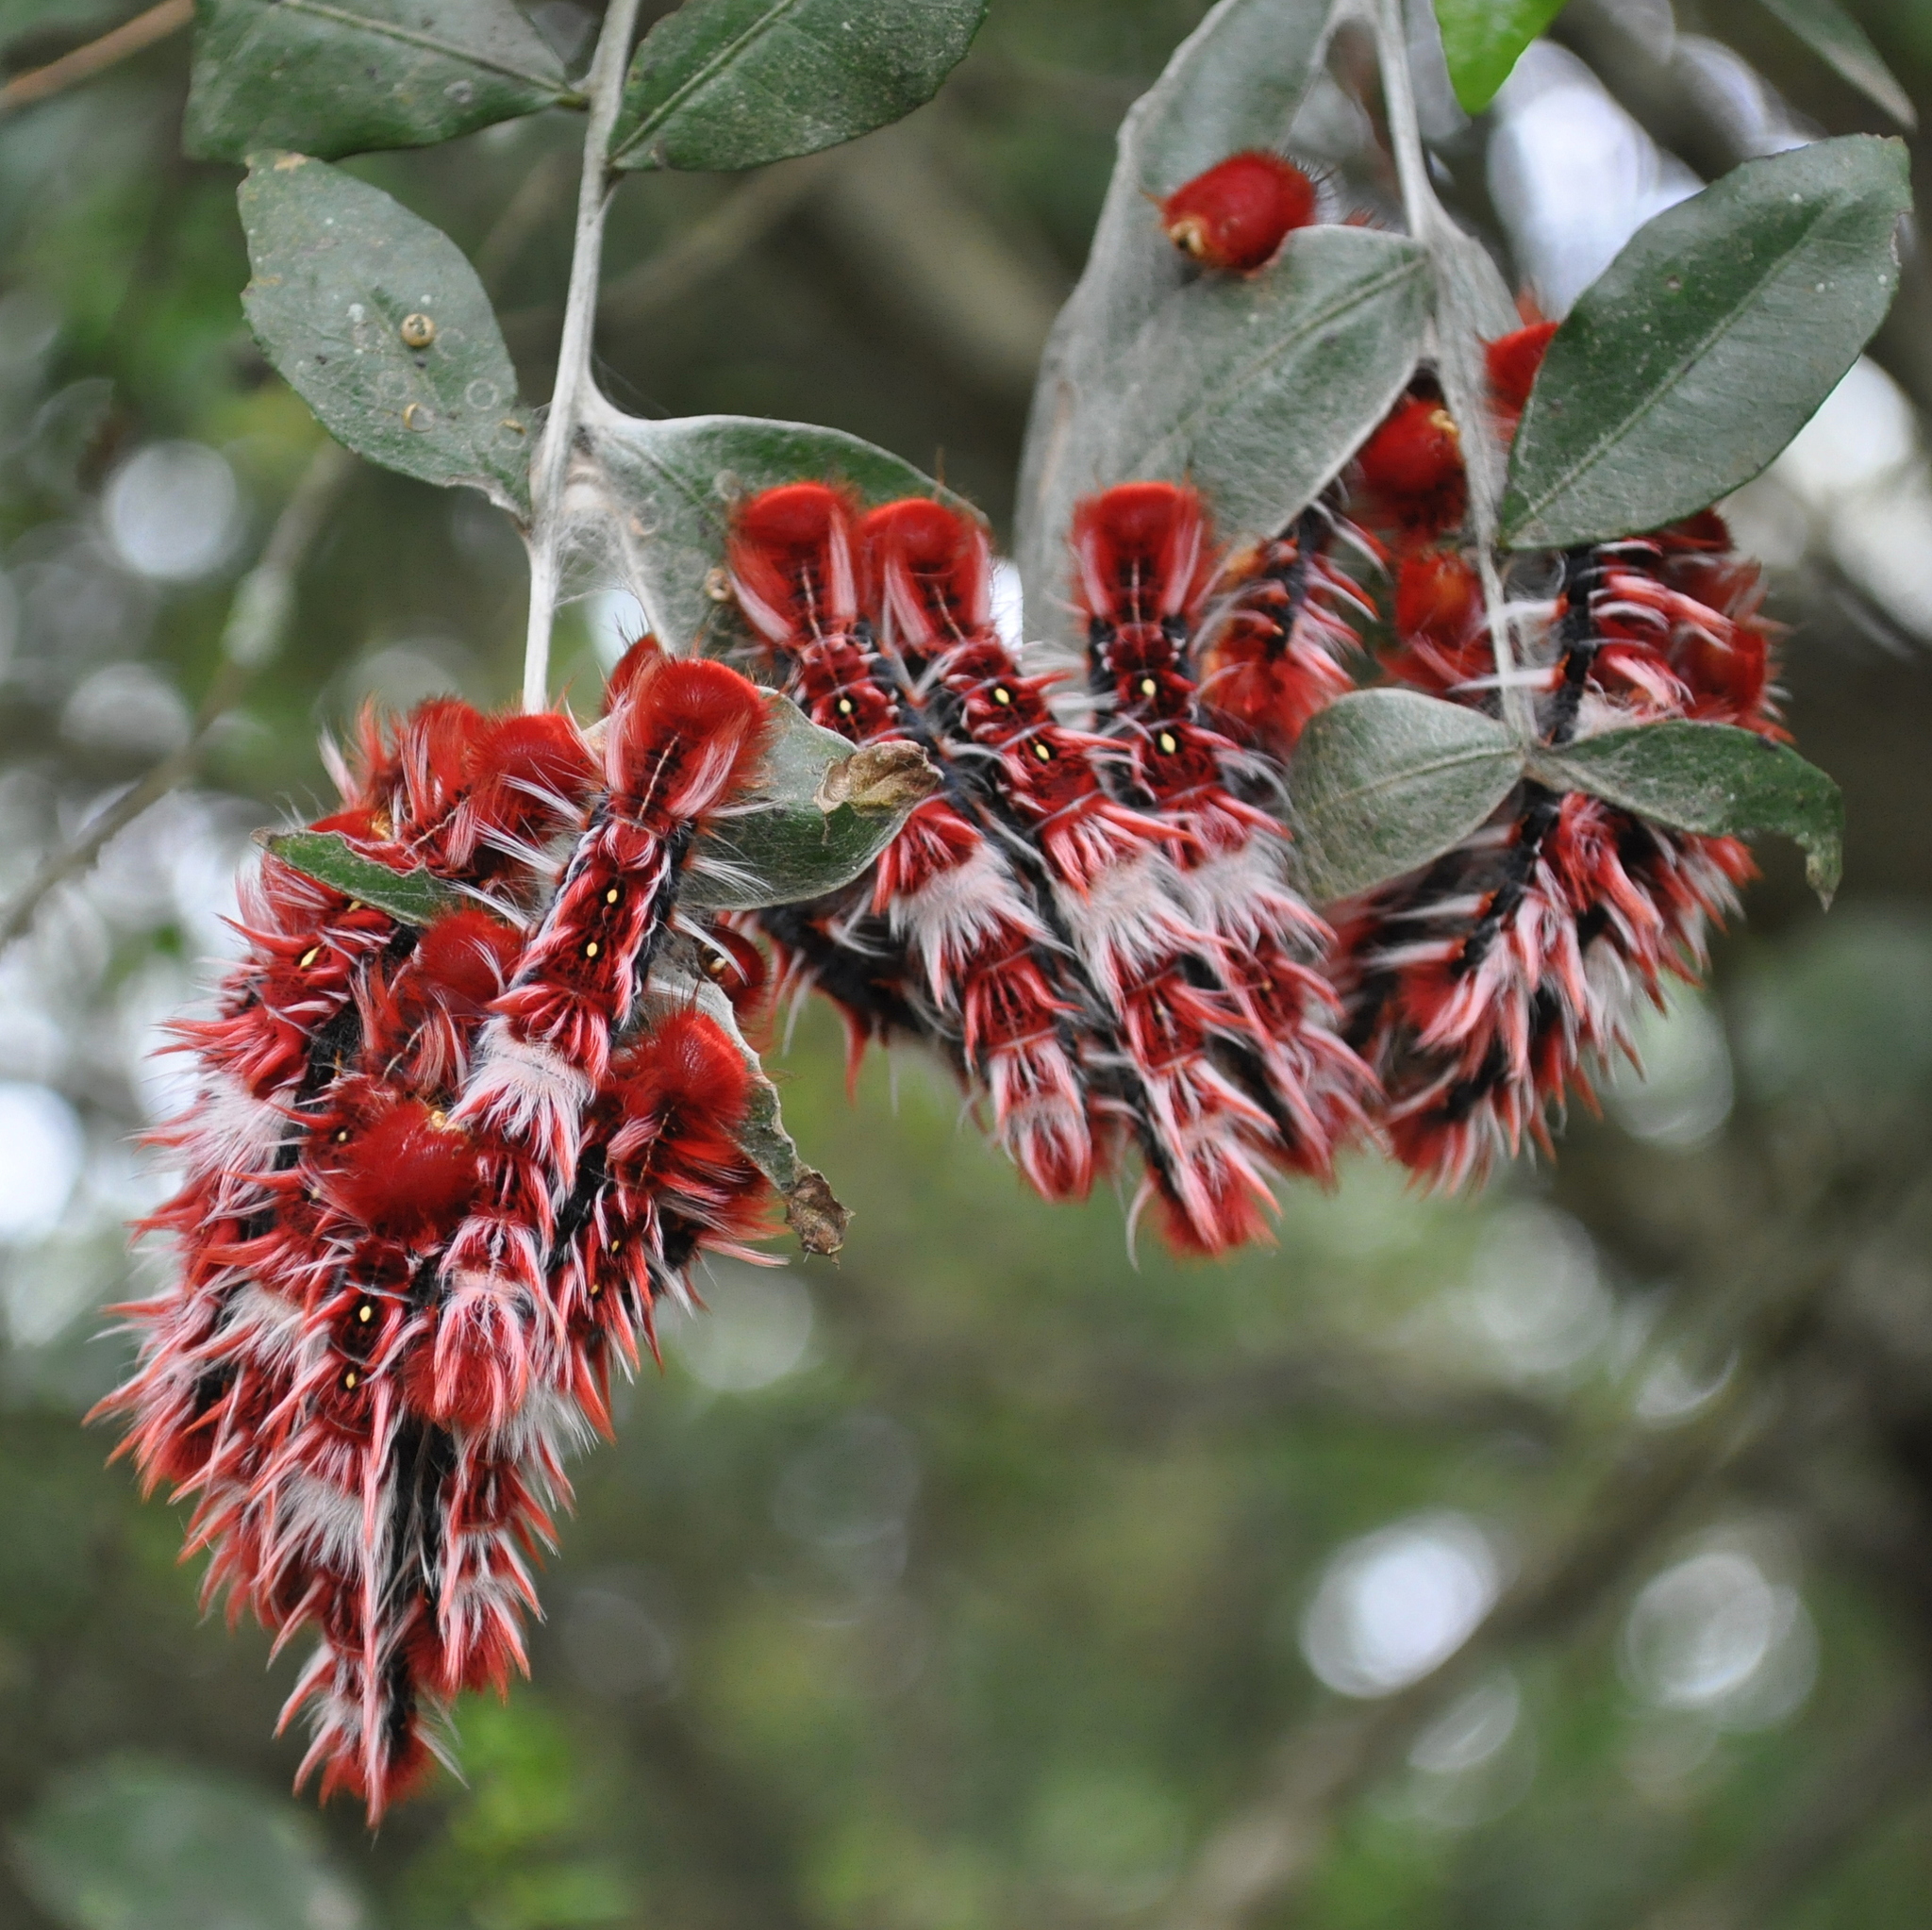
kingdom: Animalia
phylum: Arthropoda
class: Insecta
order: Lepidoptera
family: Nymphalidae
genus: Morpho
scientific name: Morpho epistrophus
